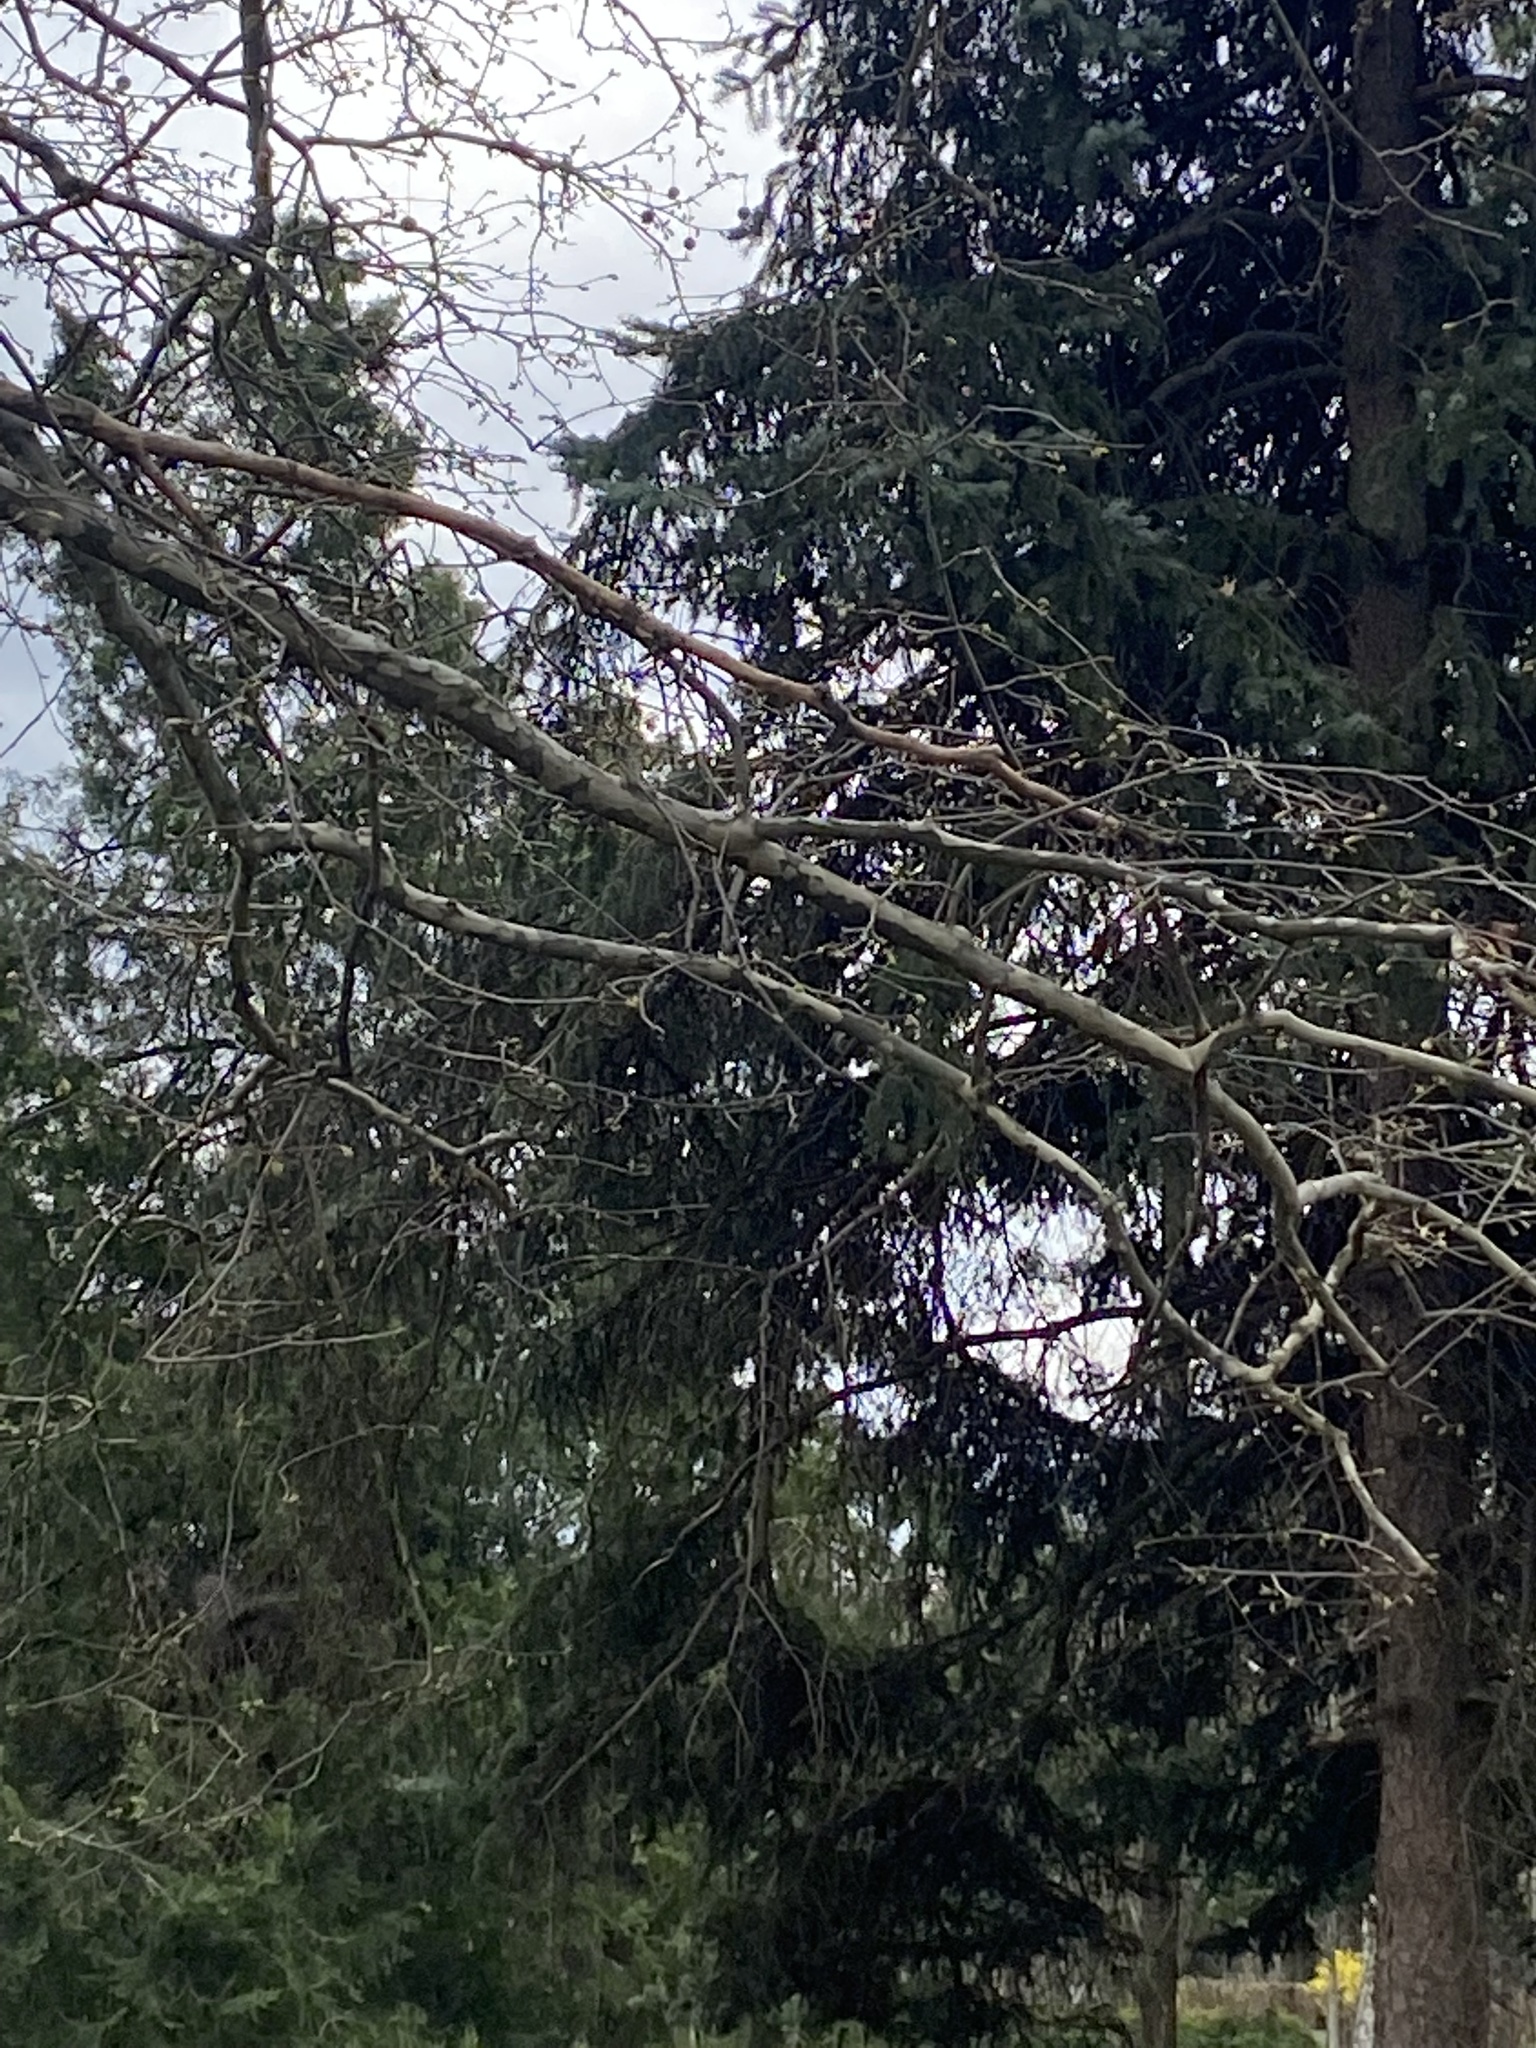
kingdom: Animalia
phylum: Chordata
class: Aves
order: Passeriformes
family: Turdidae
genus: Turdus
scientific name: Turdus merula
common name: Common blackbird
